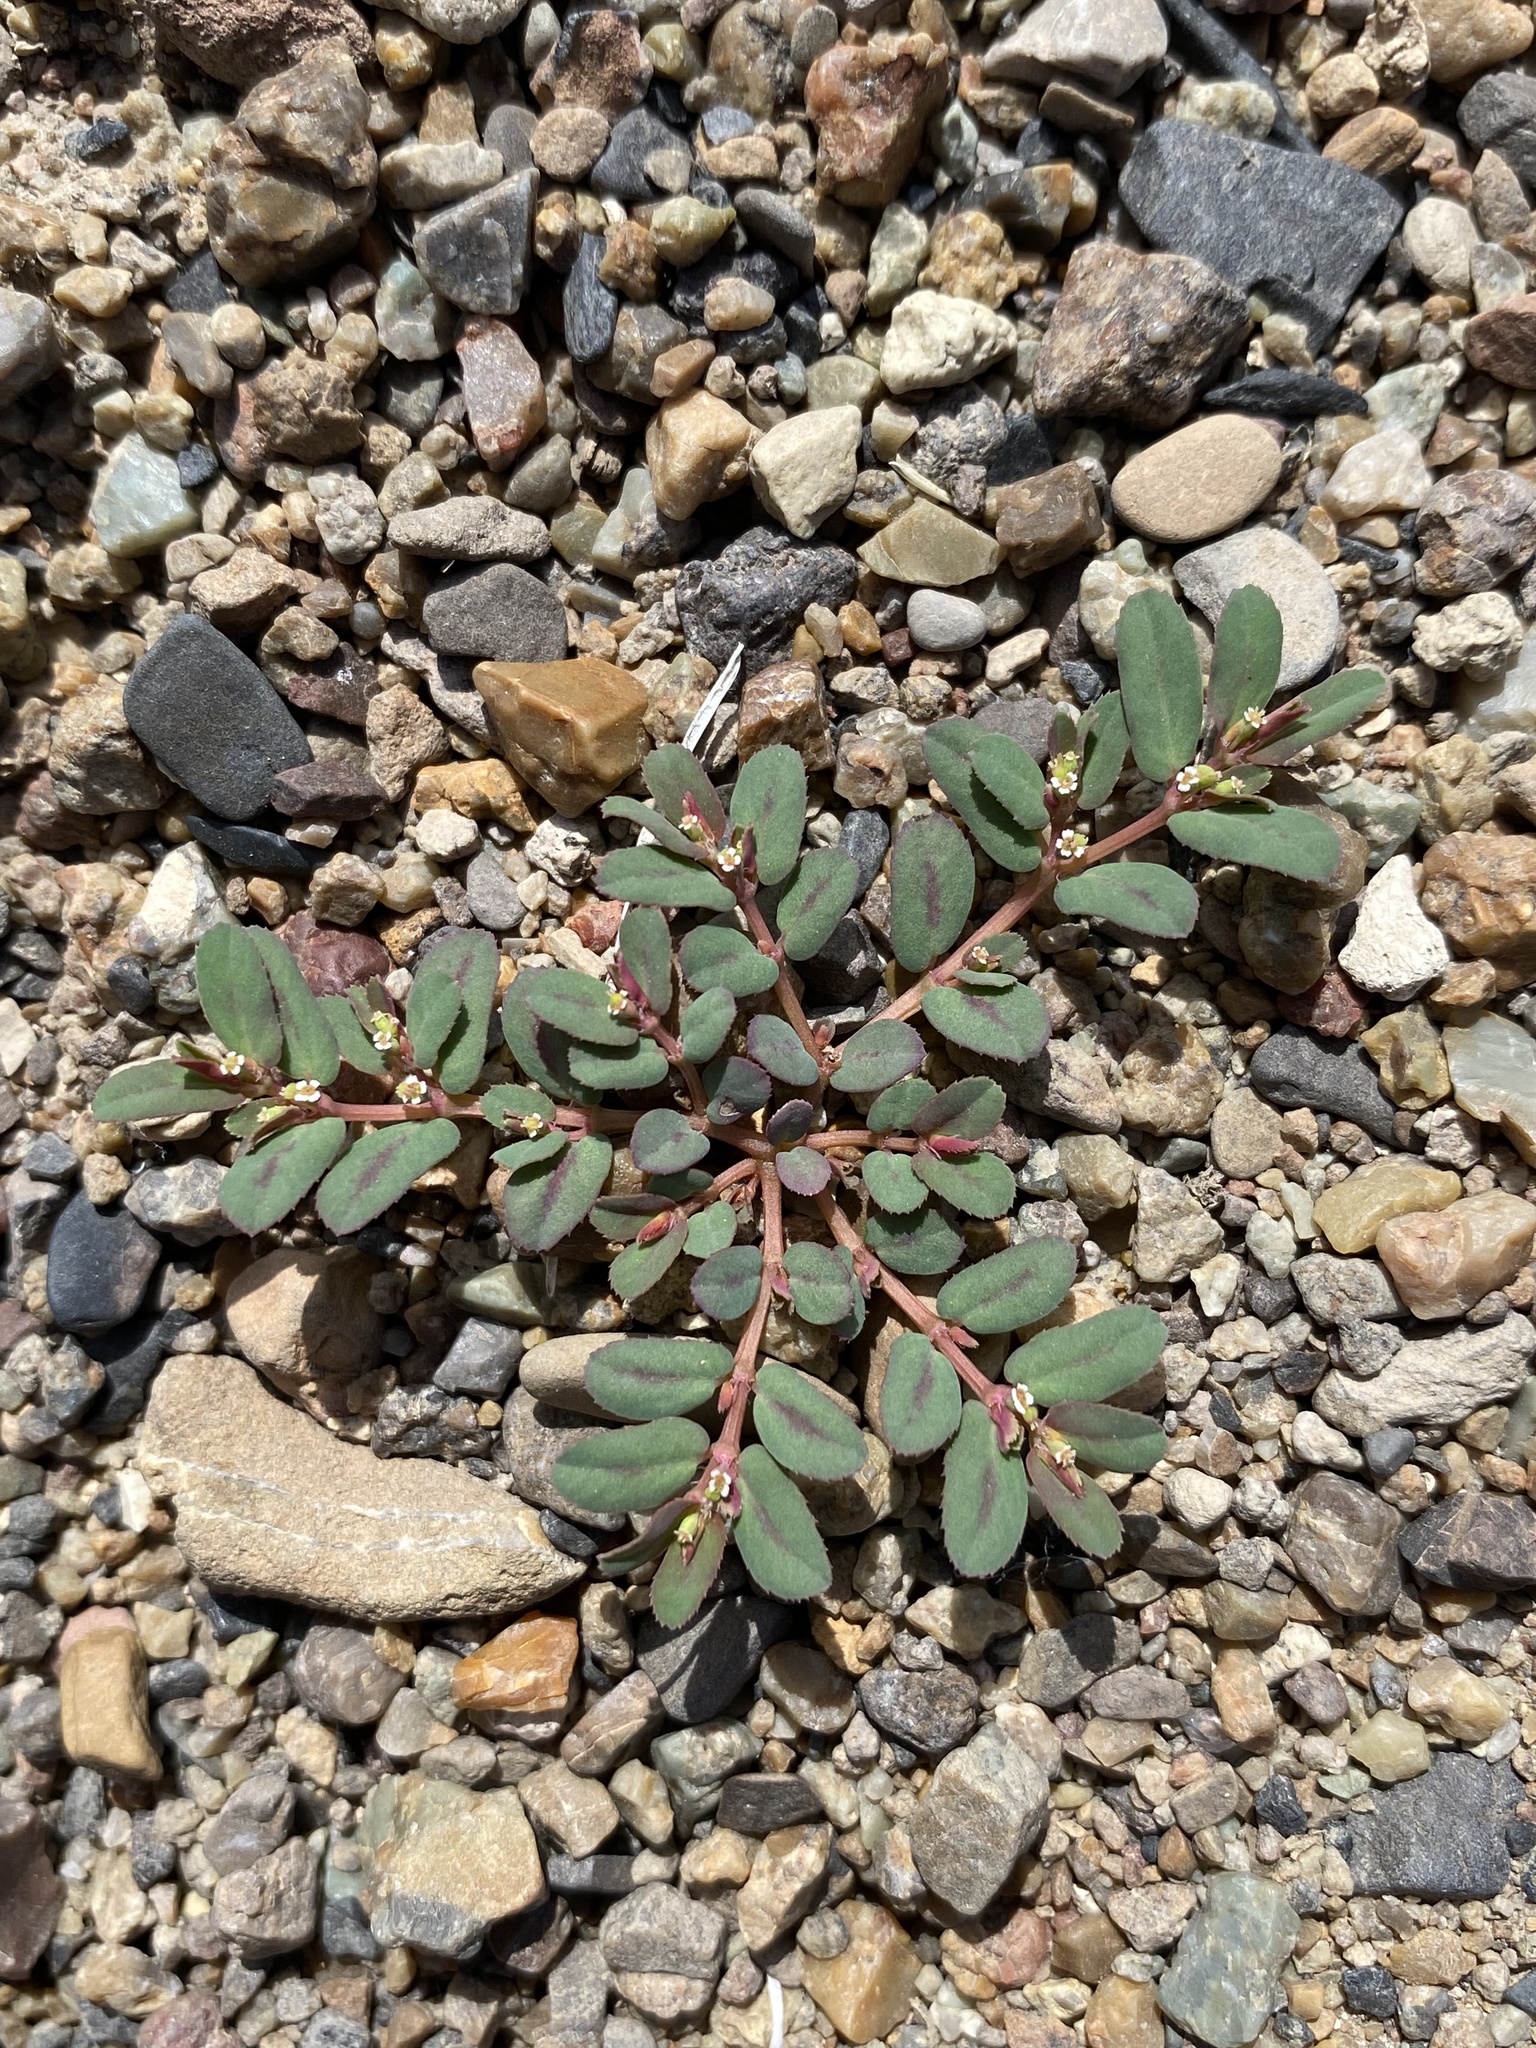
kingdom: Plantae
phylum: Tracheophyta
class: Magnoliopsida
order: Malpighiales
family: Euphorbiaceae
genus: Euphorbia
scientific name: Euphorbia serpillifolia
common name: Thyme-leaf spurge
